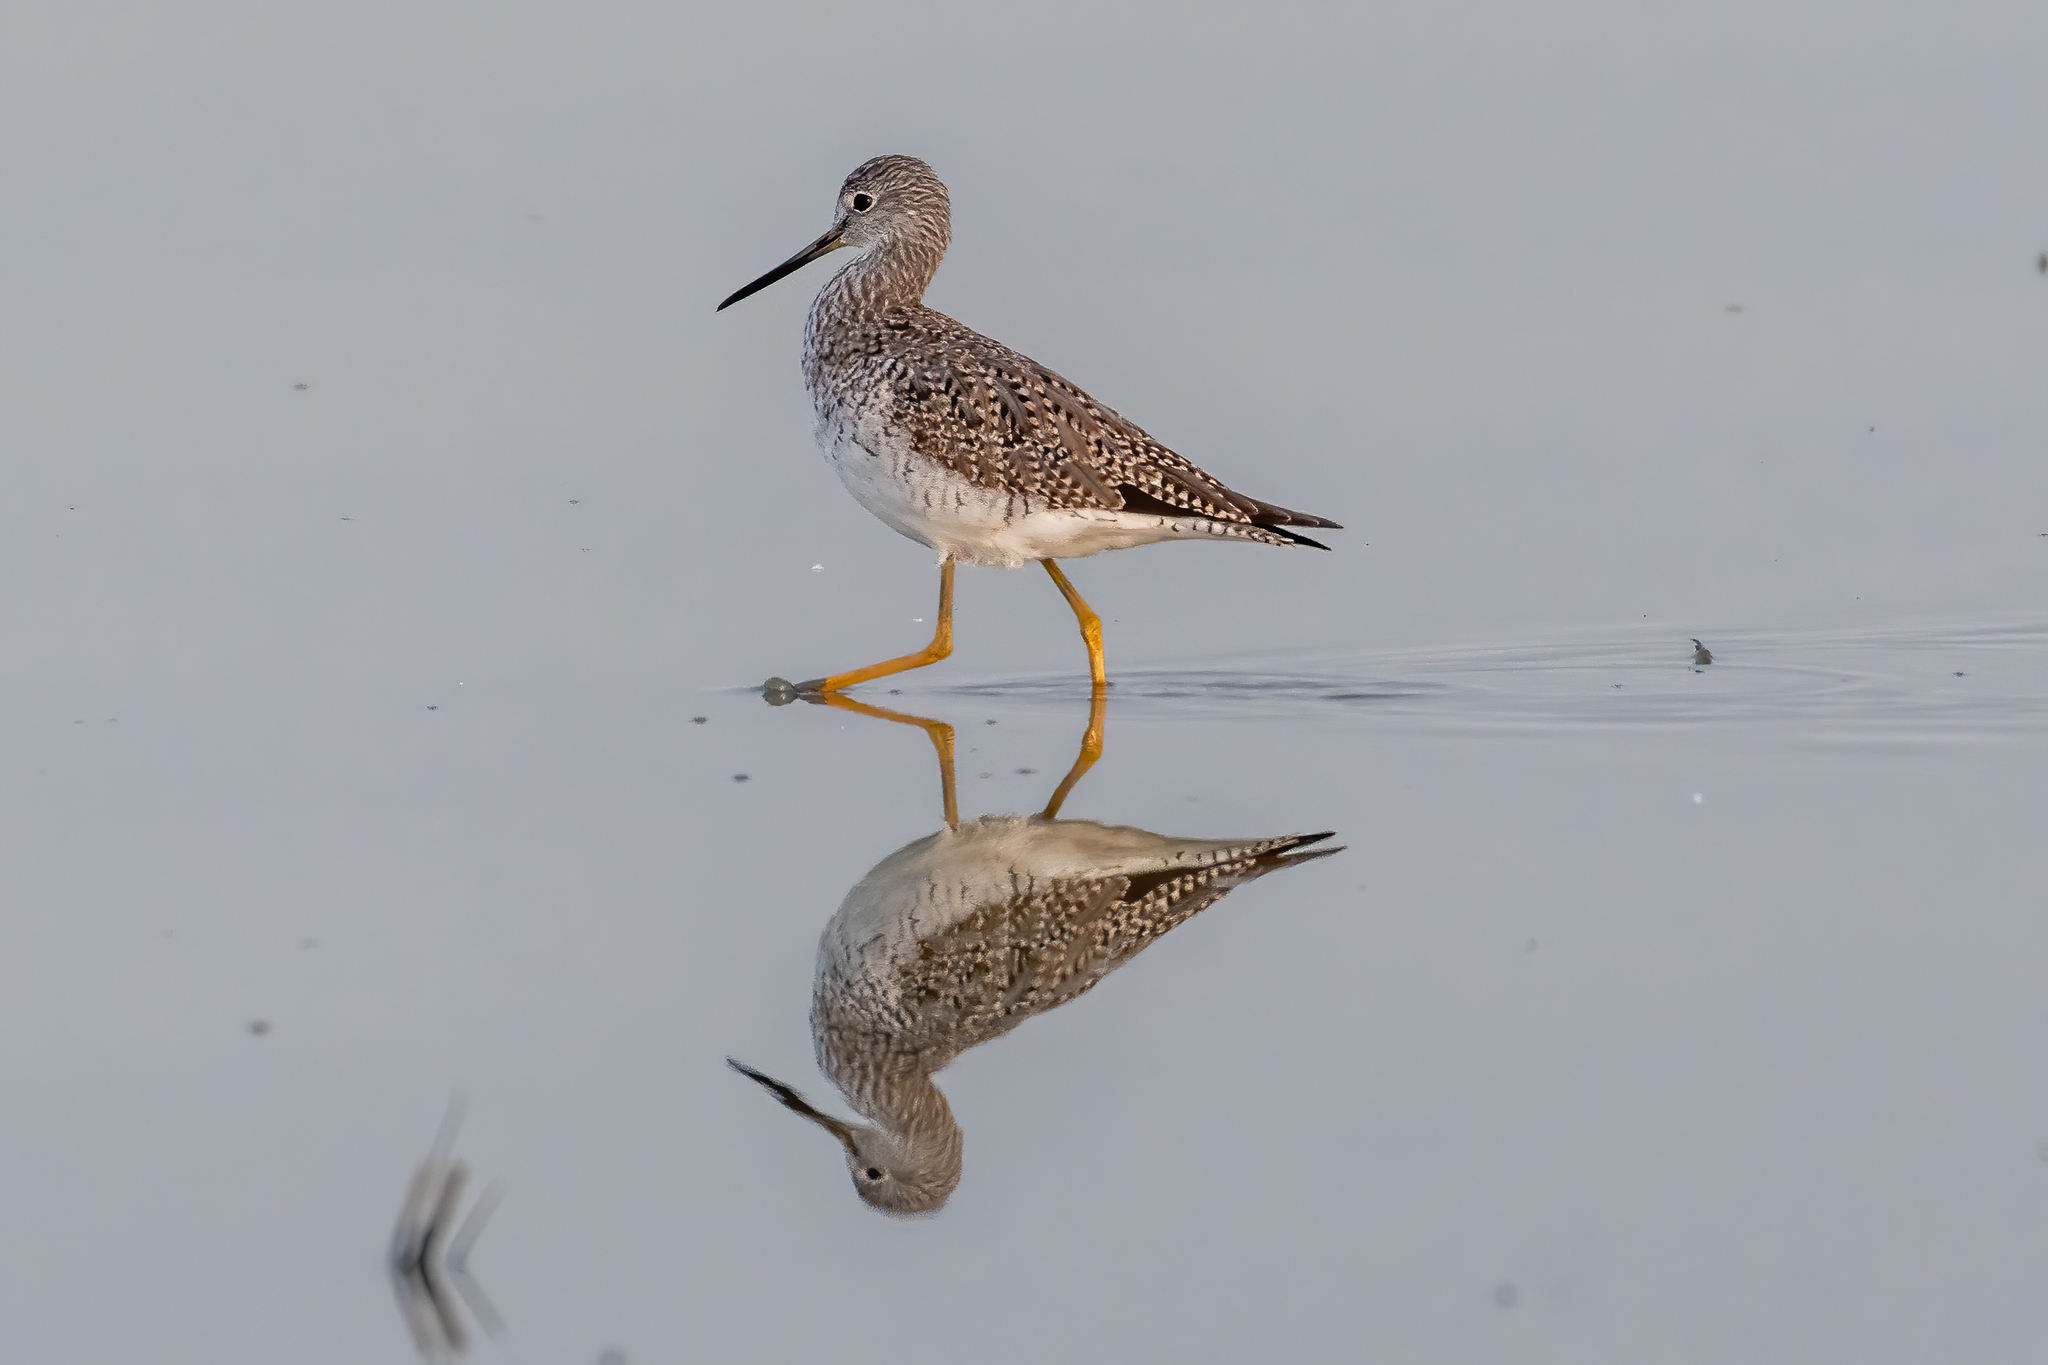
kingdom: Animalia
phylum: Chordata
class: Aves
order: Charadriiformes
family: Scolopacidae
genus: Tringa
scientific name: Tringa melanoleuca
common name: Greater yellowlegs
